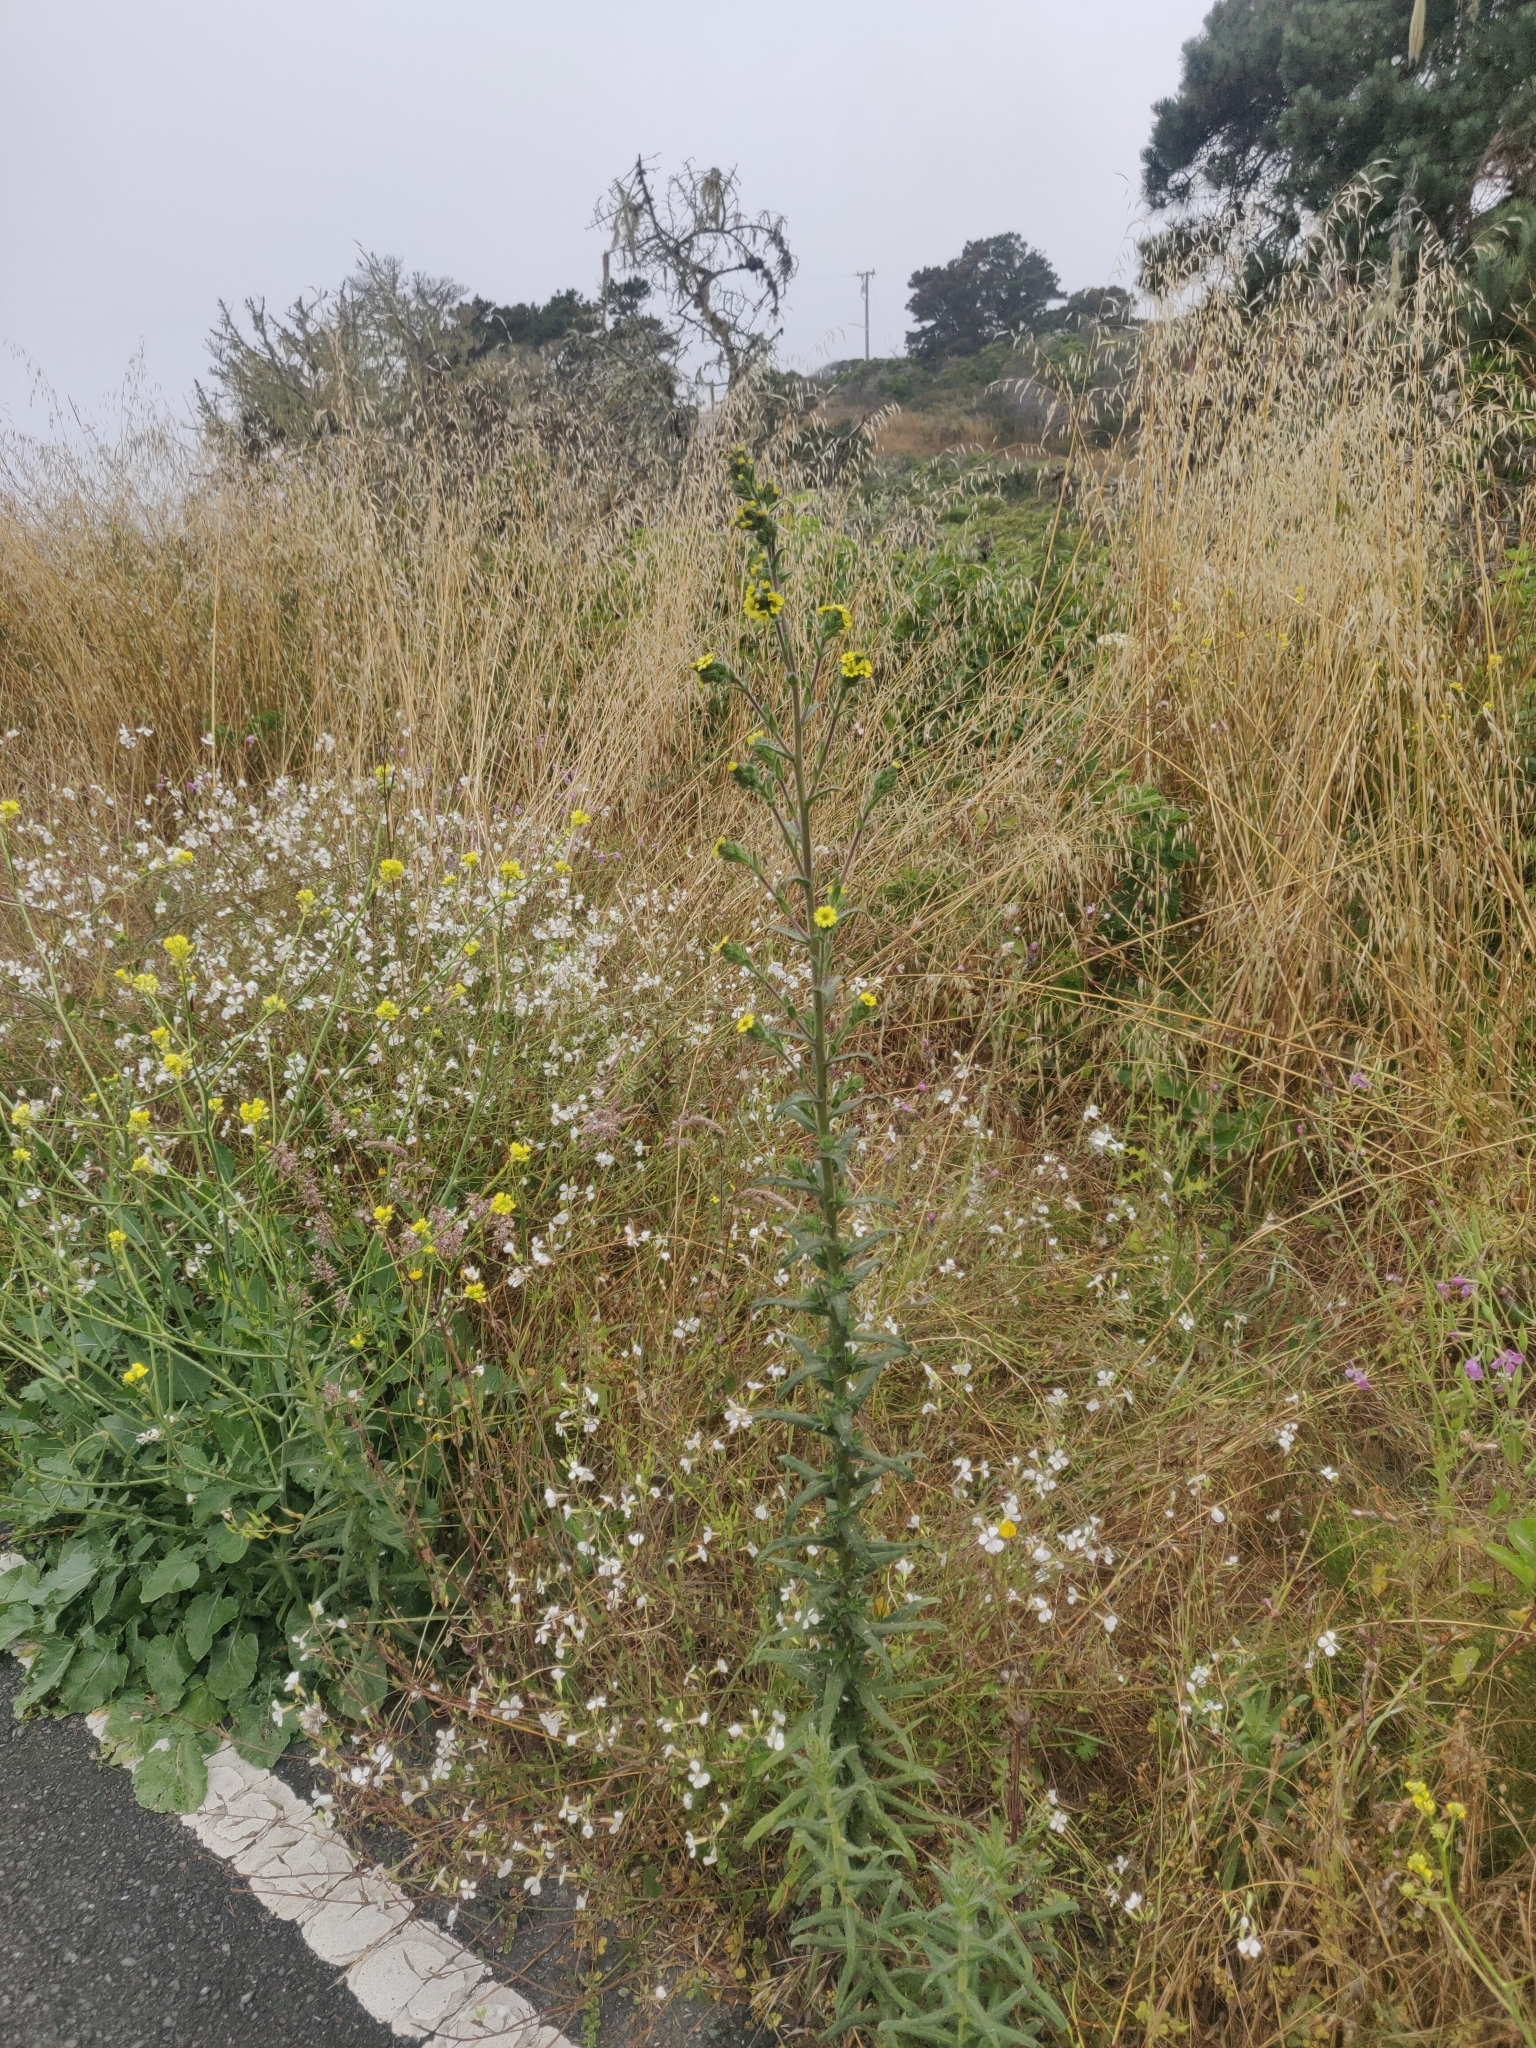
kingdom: Plantae
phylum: Tracheophyta
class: Magnoliopsida
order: Asterales
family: Asteraceae
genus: Madia
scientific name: Madia sativa
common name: Coast tarweed
